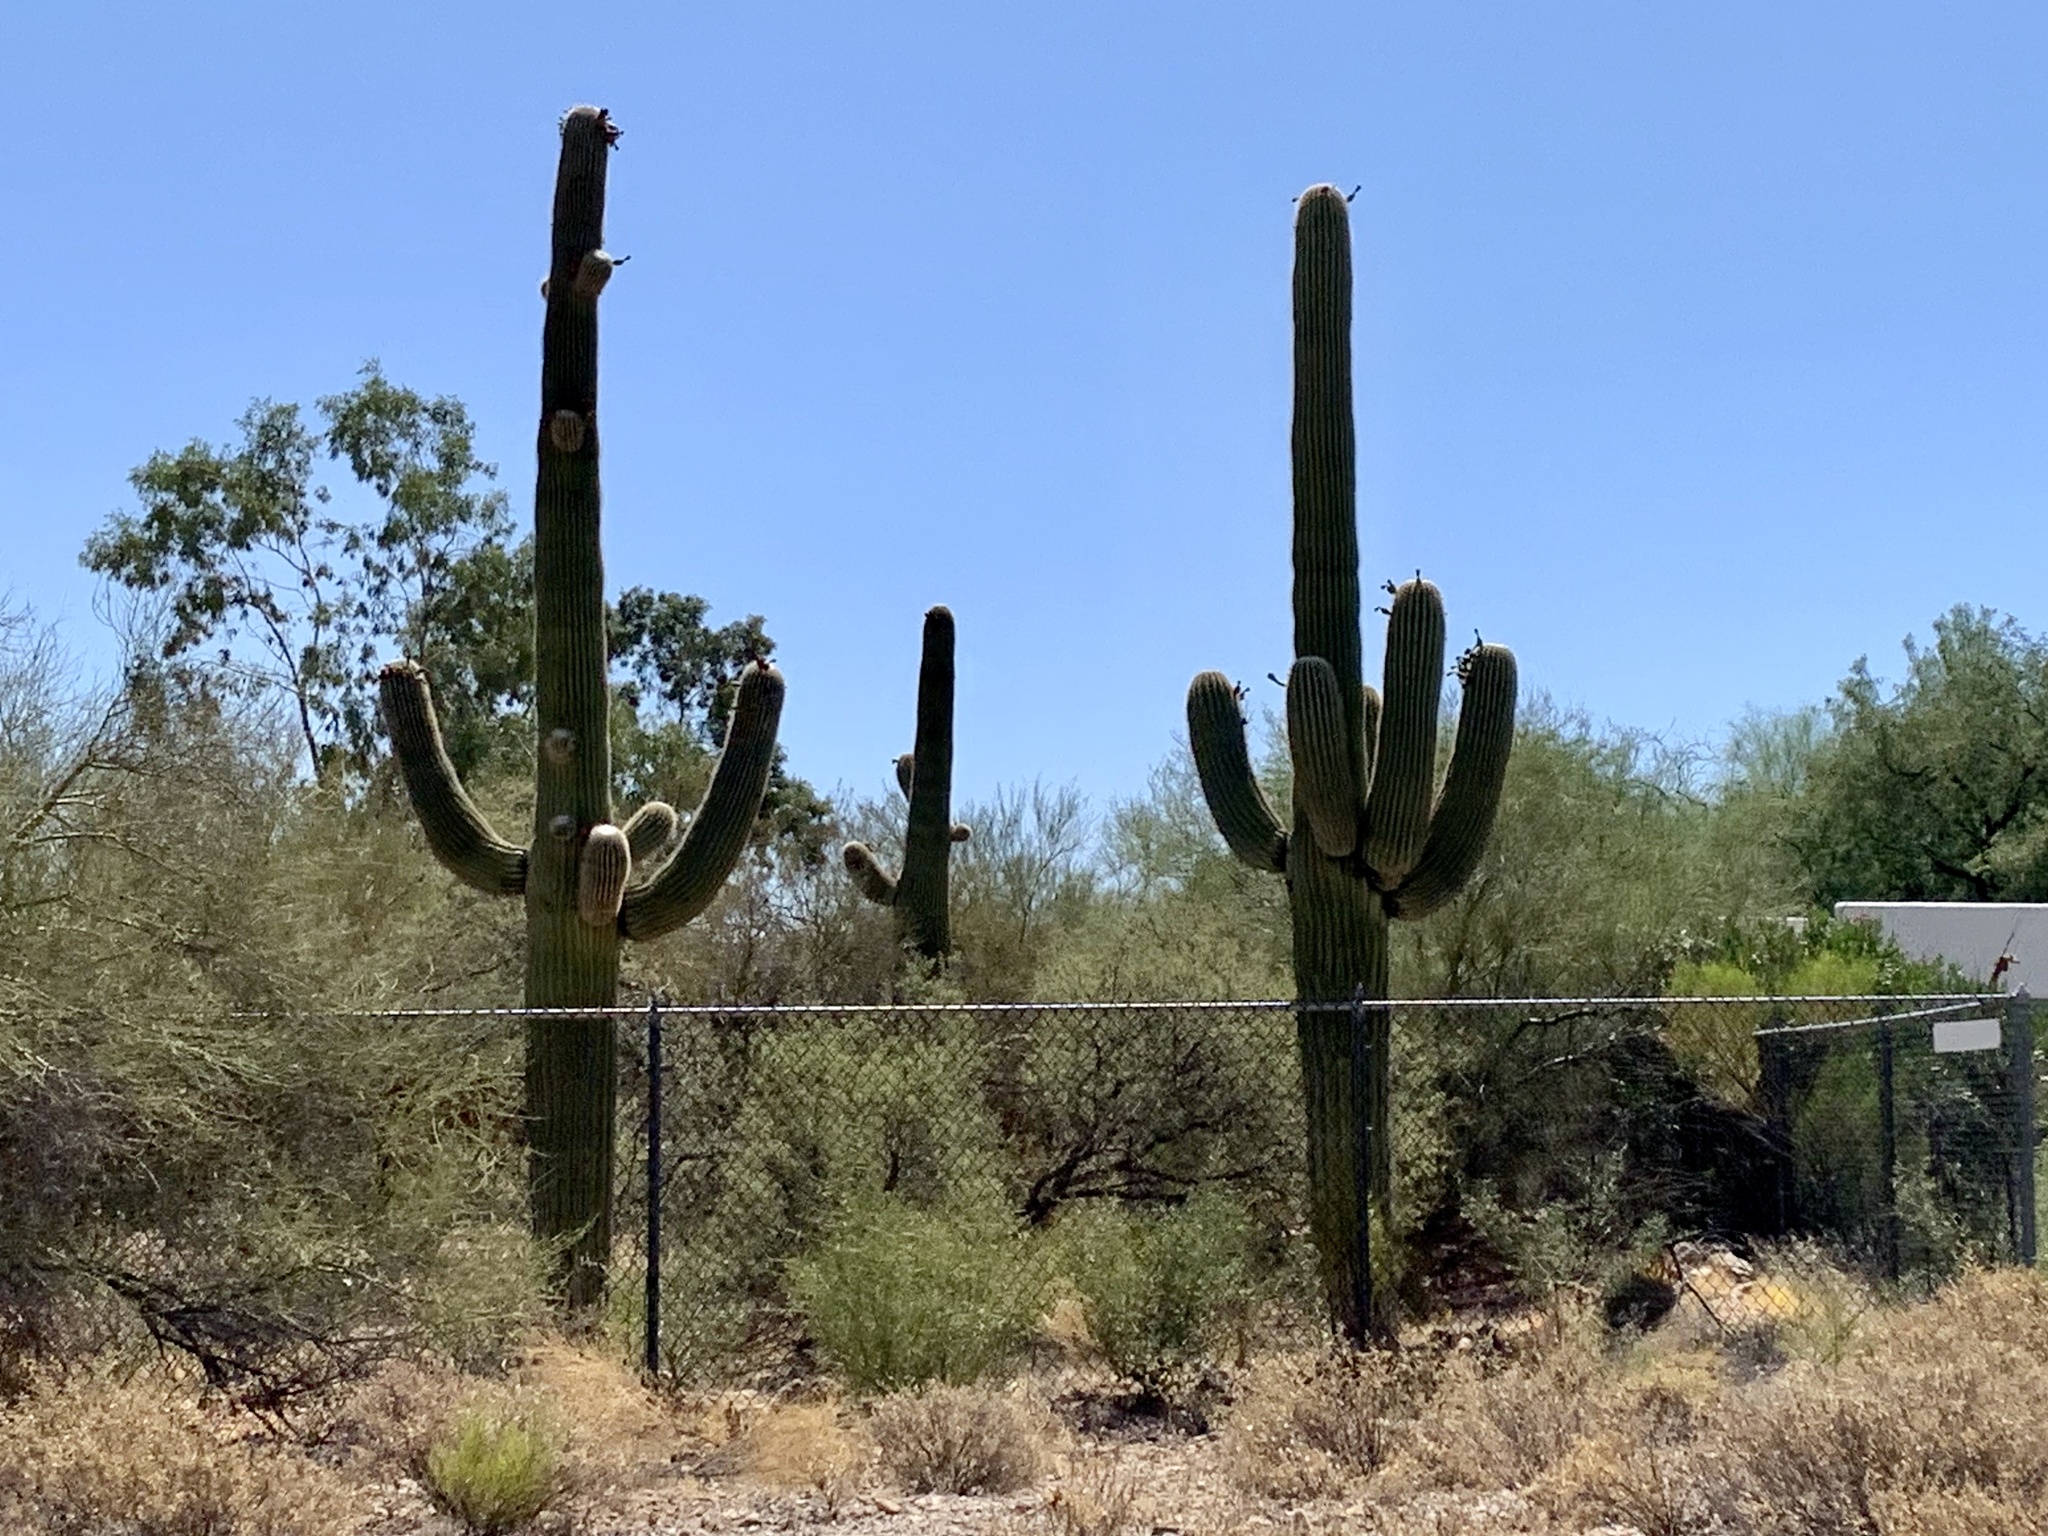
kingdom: Plantae
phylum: Tracheophyta
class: Magnoliopsida
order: Caryophyllales
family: Cactaceae
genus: Carnegiea
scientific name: Carnegiea gigantea
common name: Saguaro
